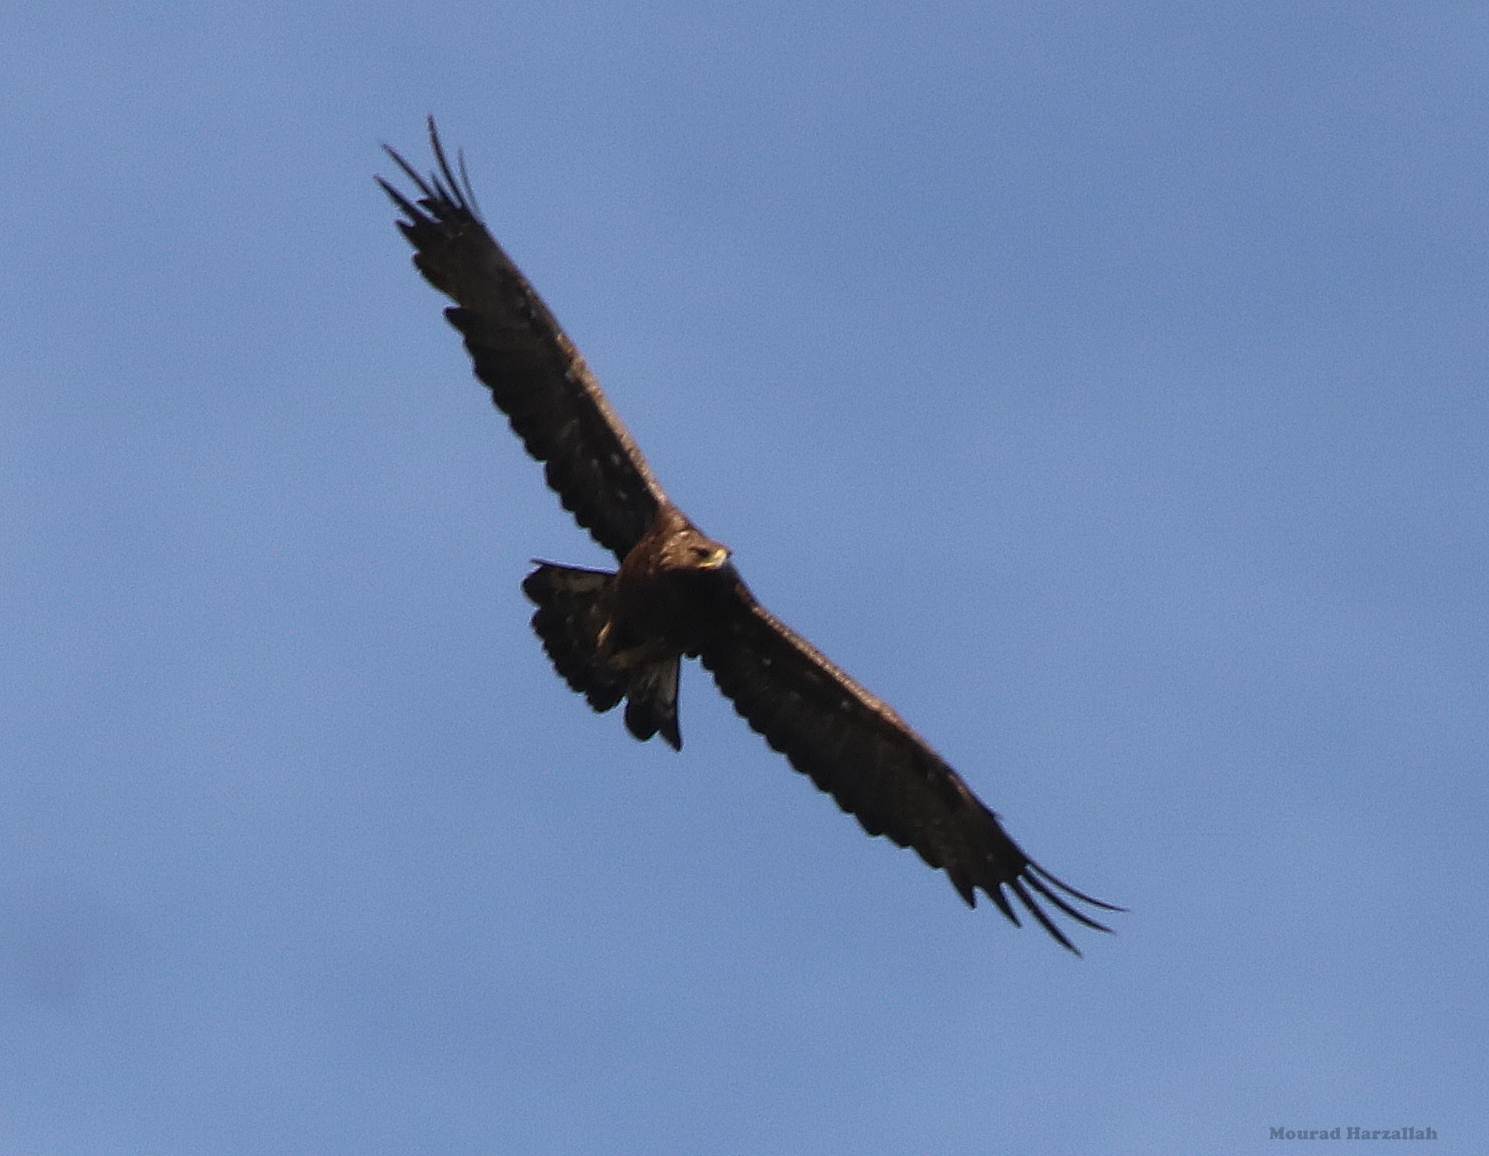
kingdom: Animalia
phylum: Chordata
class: Aves
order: Accipitriformes
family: Accipitridae
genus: Aquila
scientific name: Aquila chrysaetos
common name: Golden eagle
